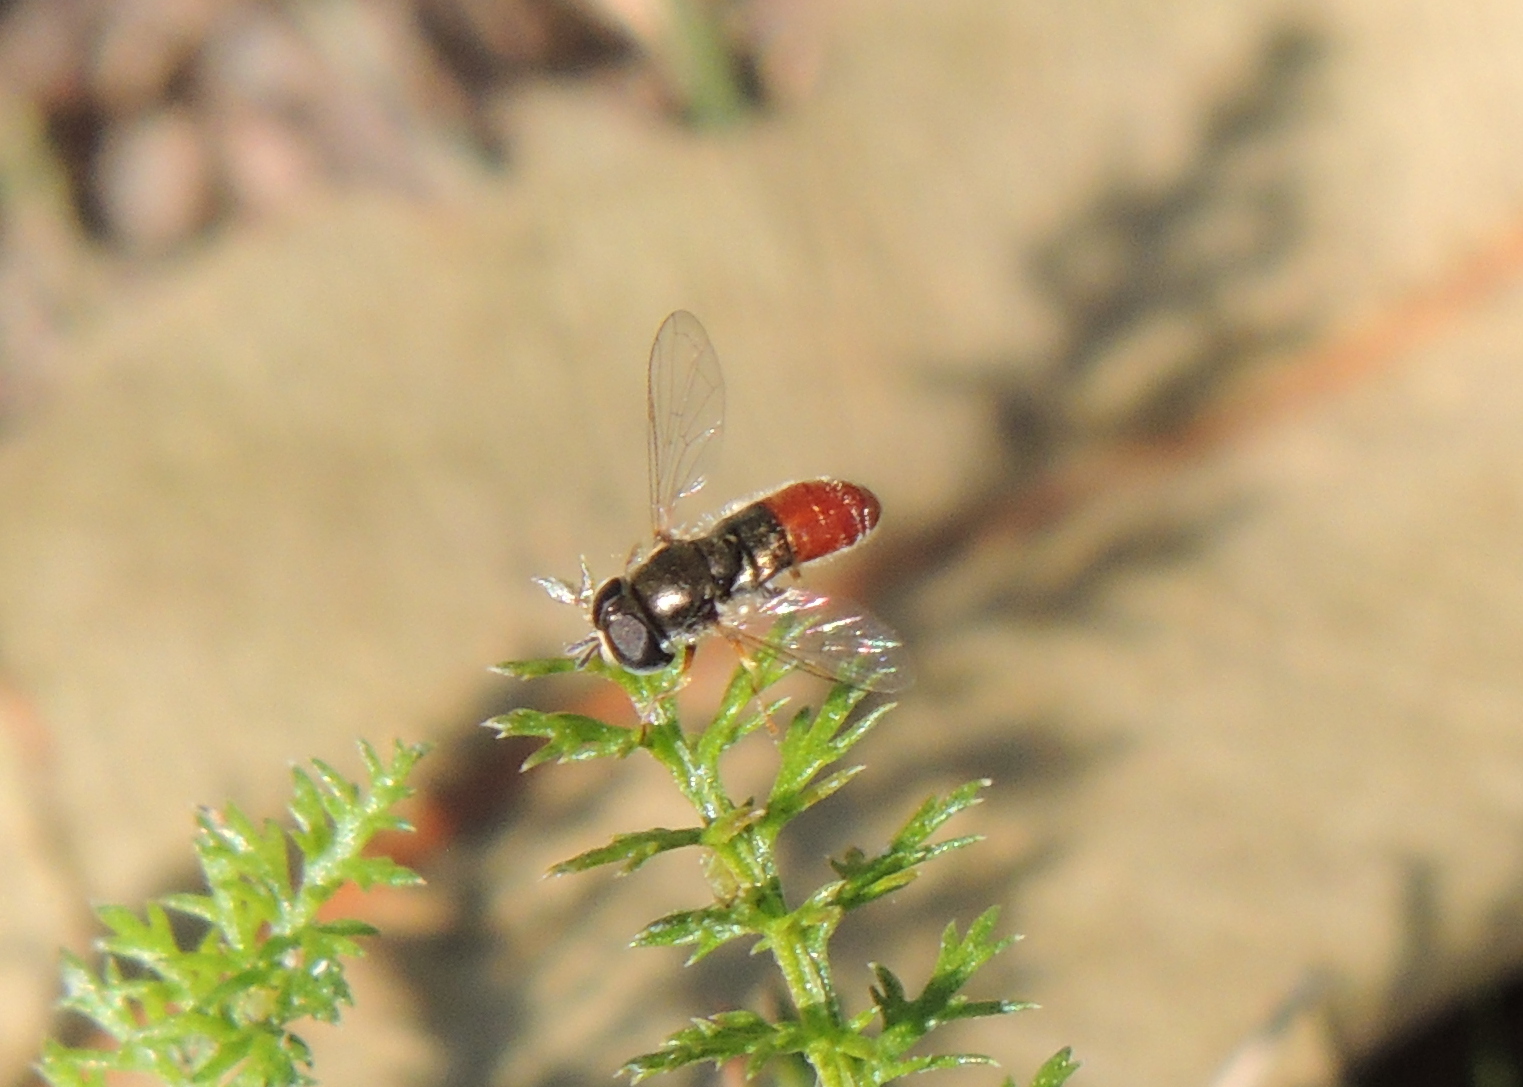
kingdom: Animalia
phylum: Arthropoda
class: Insecta
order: Diptera
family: Syrphidae
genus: Paragus
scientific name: Paragus haemorrhous
